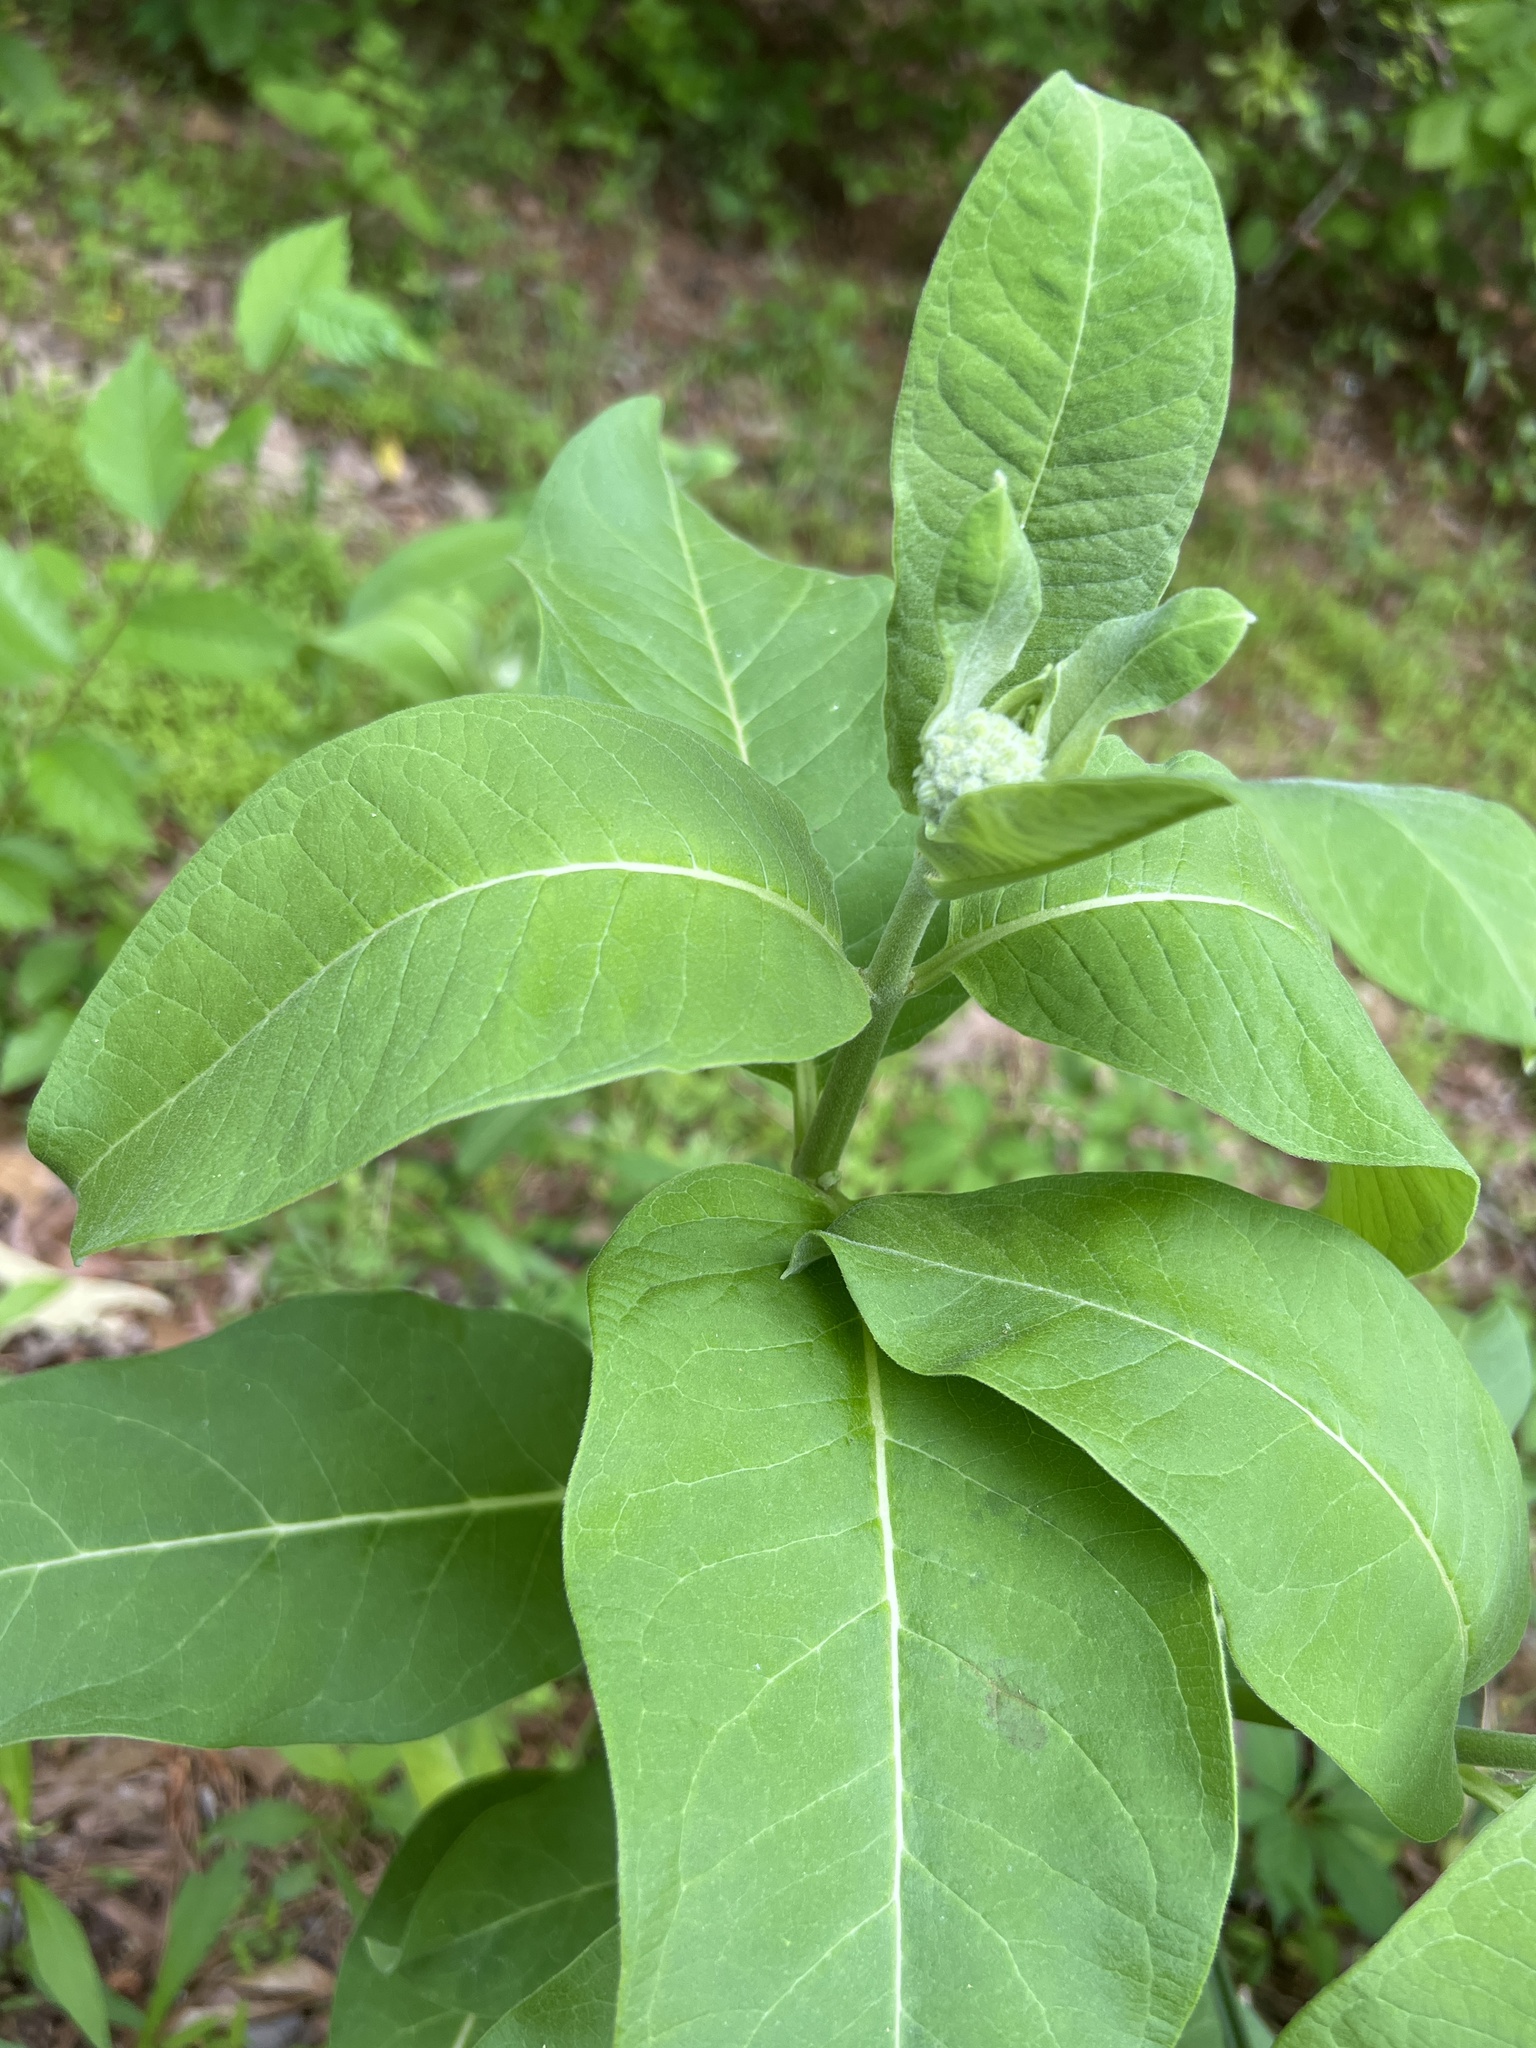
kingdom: Plantae
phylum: Tracheophyta
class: Magnoliopsida
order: Gentianales
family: Apocynaceae
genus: Asclepias
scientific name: Asclepias syriaca
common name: Common milkweed
